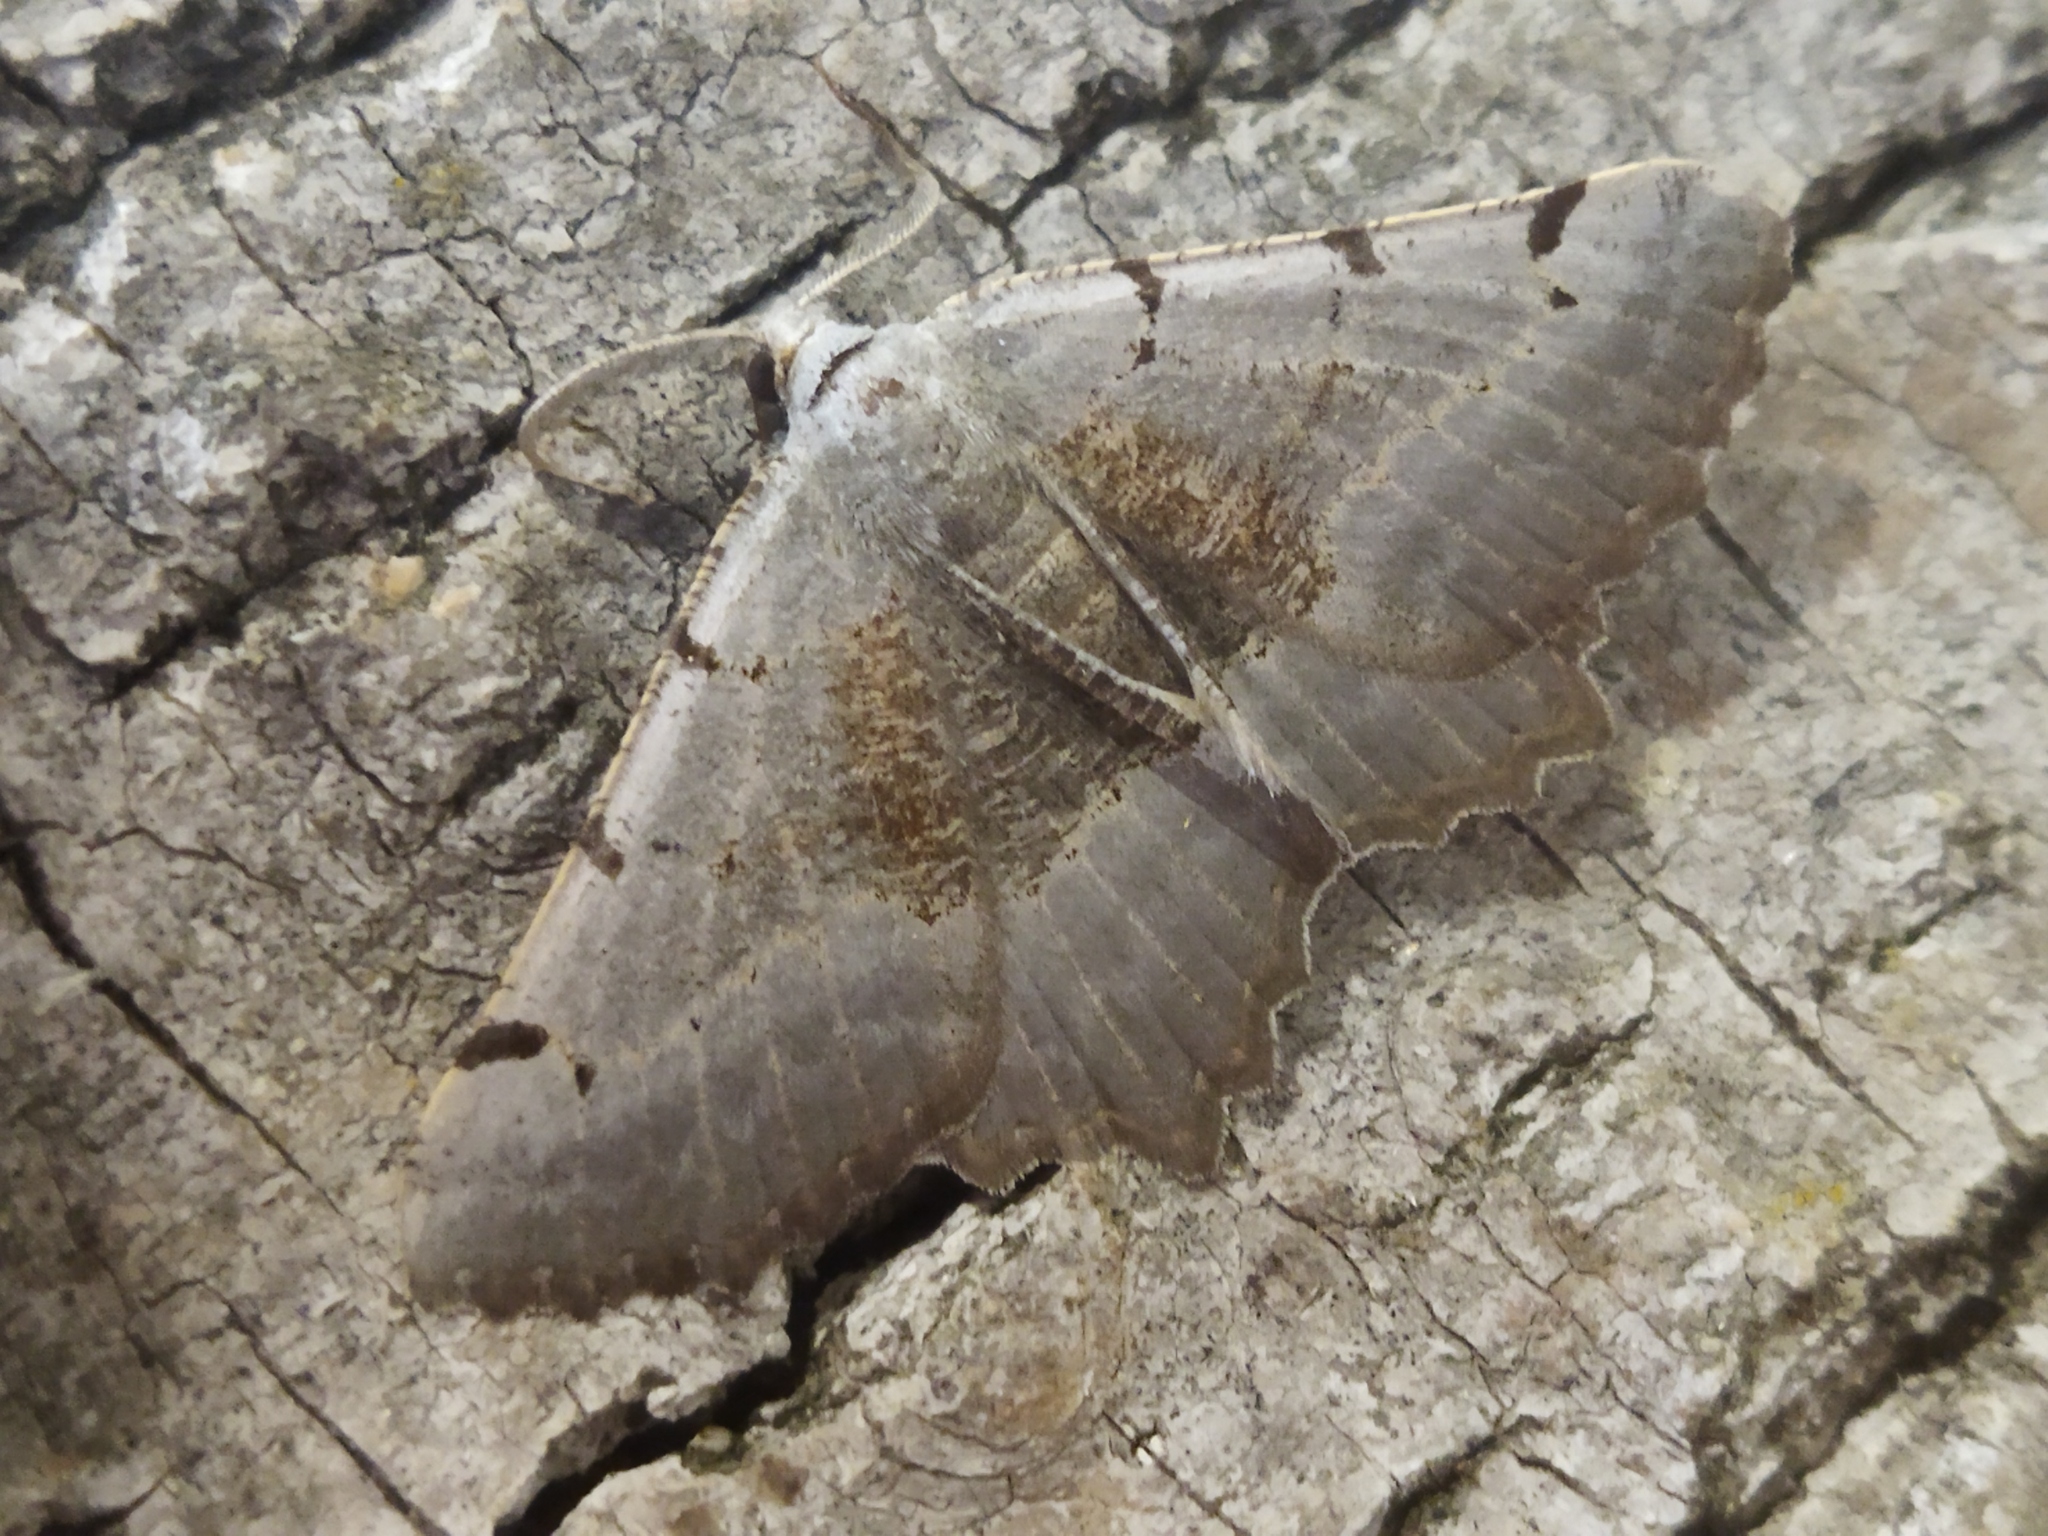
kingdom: Animalia
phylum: Arthropoda
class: Insecta
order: Lepidoptera
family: Geometridae
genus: Neognopharmia
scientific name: Neognopharmia stevenaria
